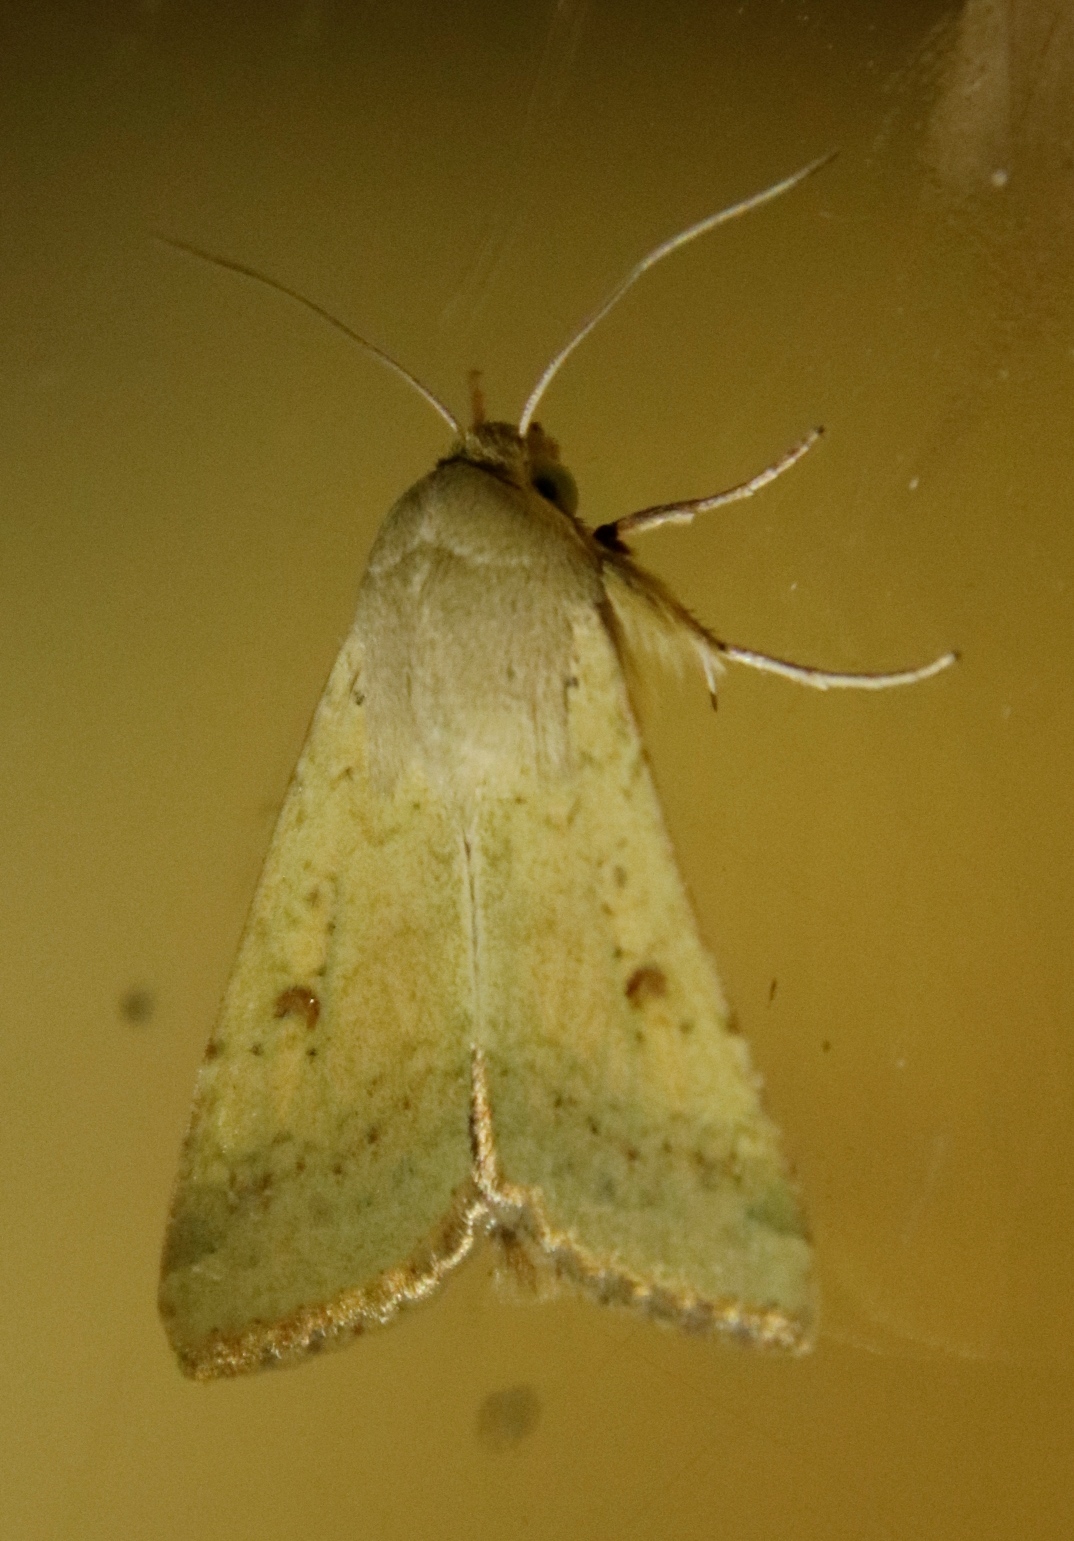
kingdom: Animalia
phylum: Arthropoda
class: Insecta
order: Lepidoptera
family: Noctuidae
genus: Helicoverpa
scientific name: Helicoverpa armigera
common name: Cotton bollworm
